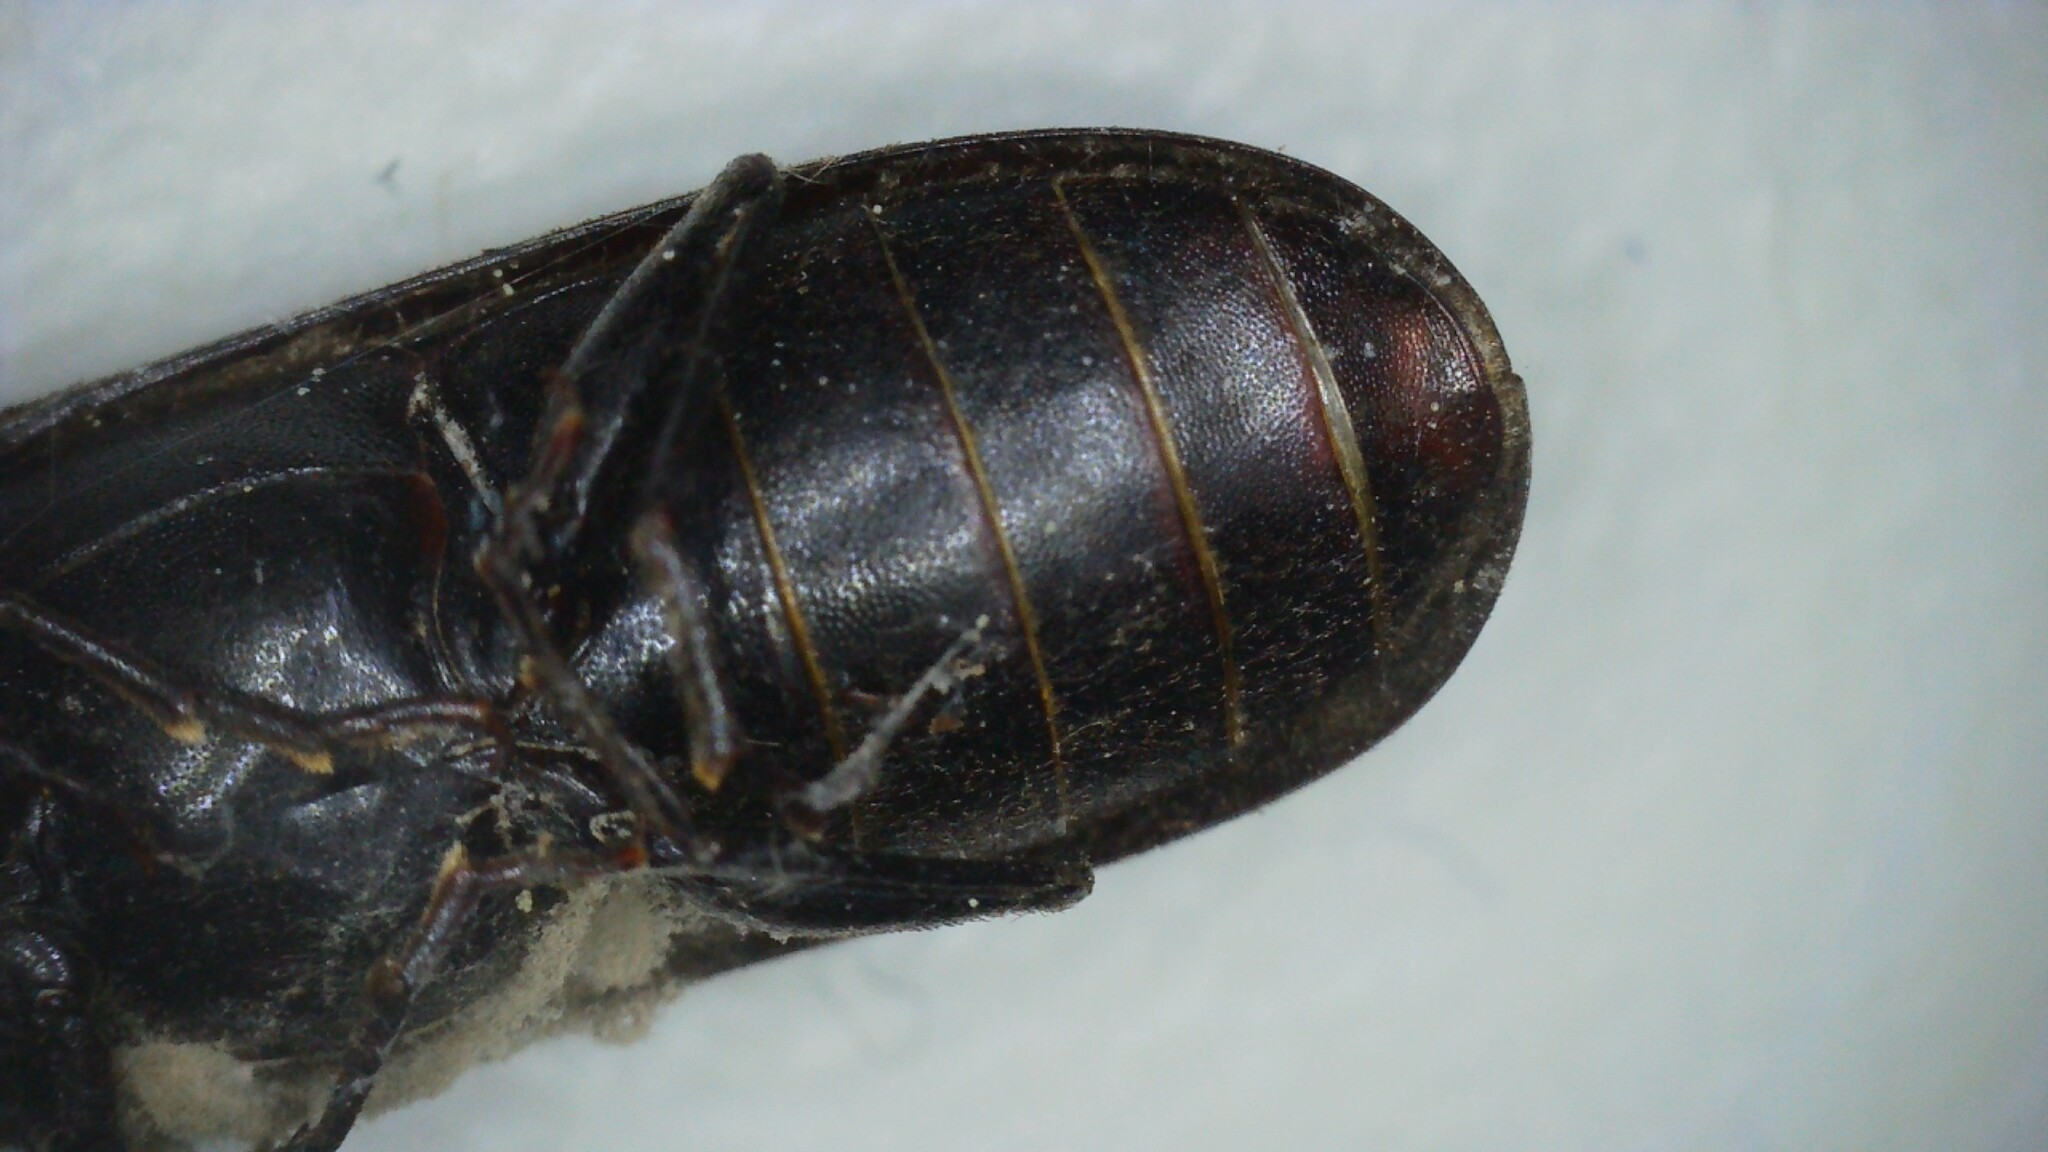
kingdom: Animalia
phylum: Arthropoda
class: Insecta
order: Coleoptera
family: Bostrichidae
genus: Polycaon
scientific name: Polycaon stoutii
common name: Powderpost beetle
